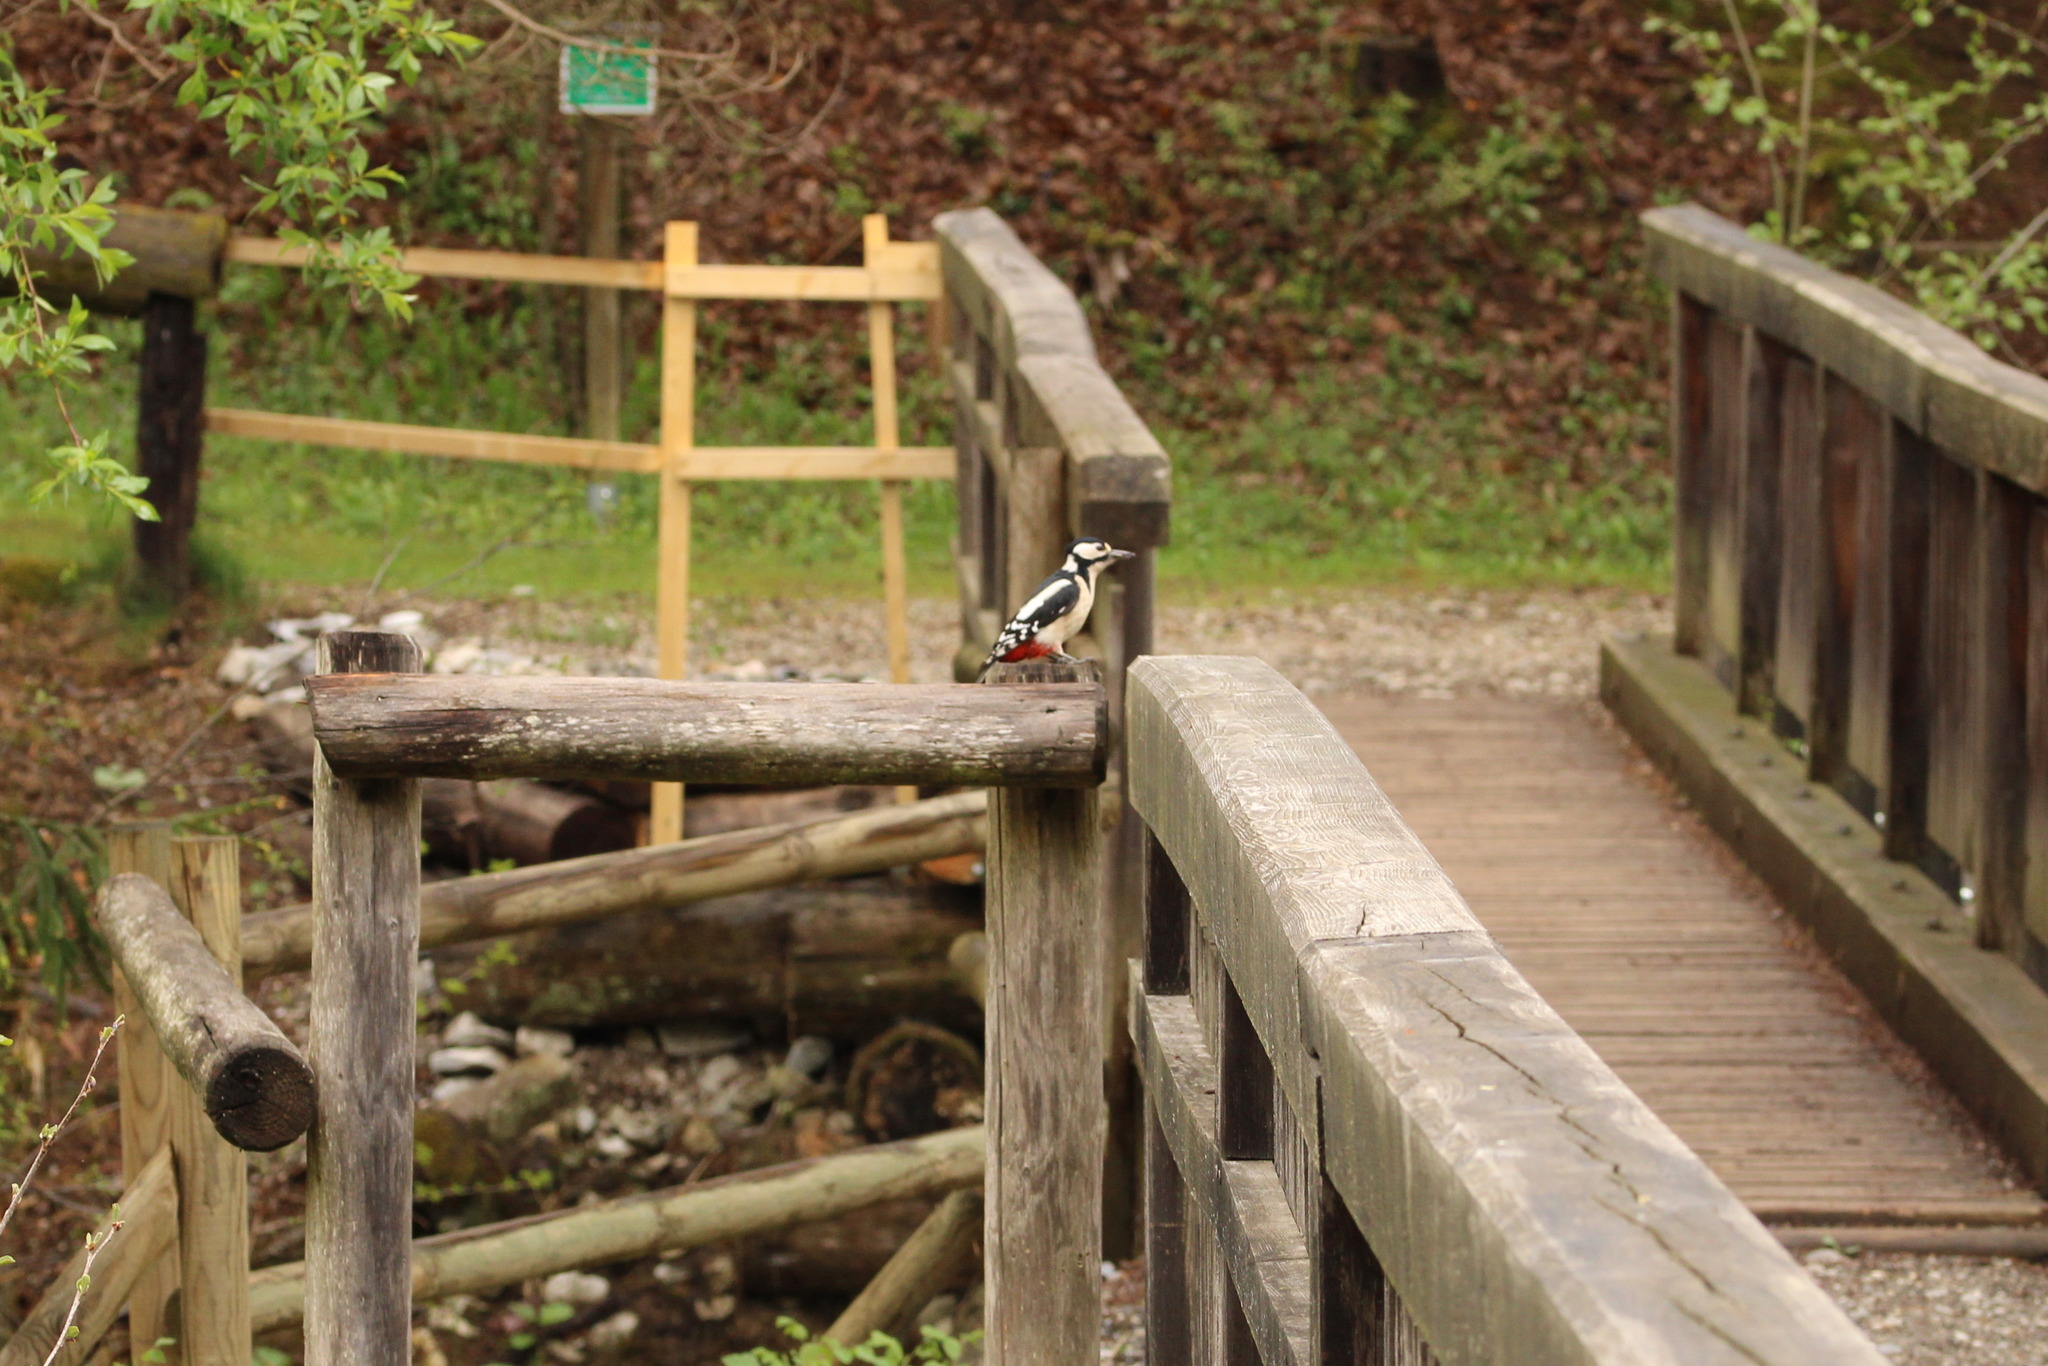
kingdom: Animalia
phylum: Chordata
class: Aves
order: Piciformes
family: Picidae
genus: Dendrocopos
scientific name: Dendrocopos major
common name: Great spotted woodpecker
